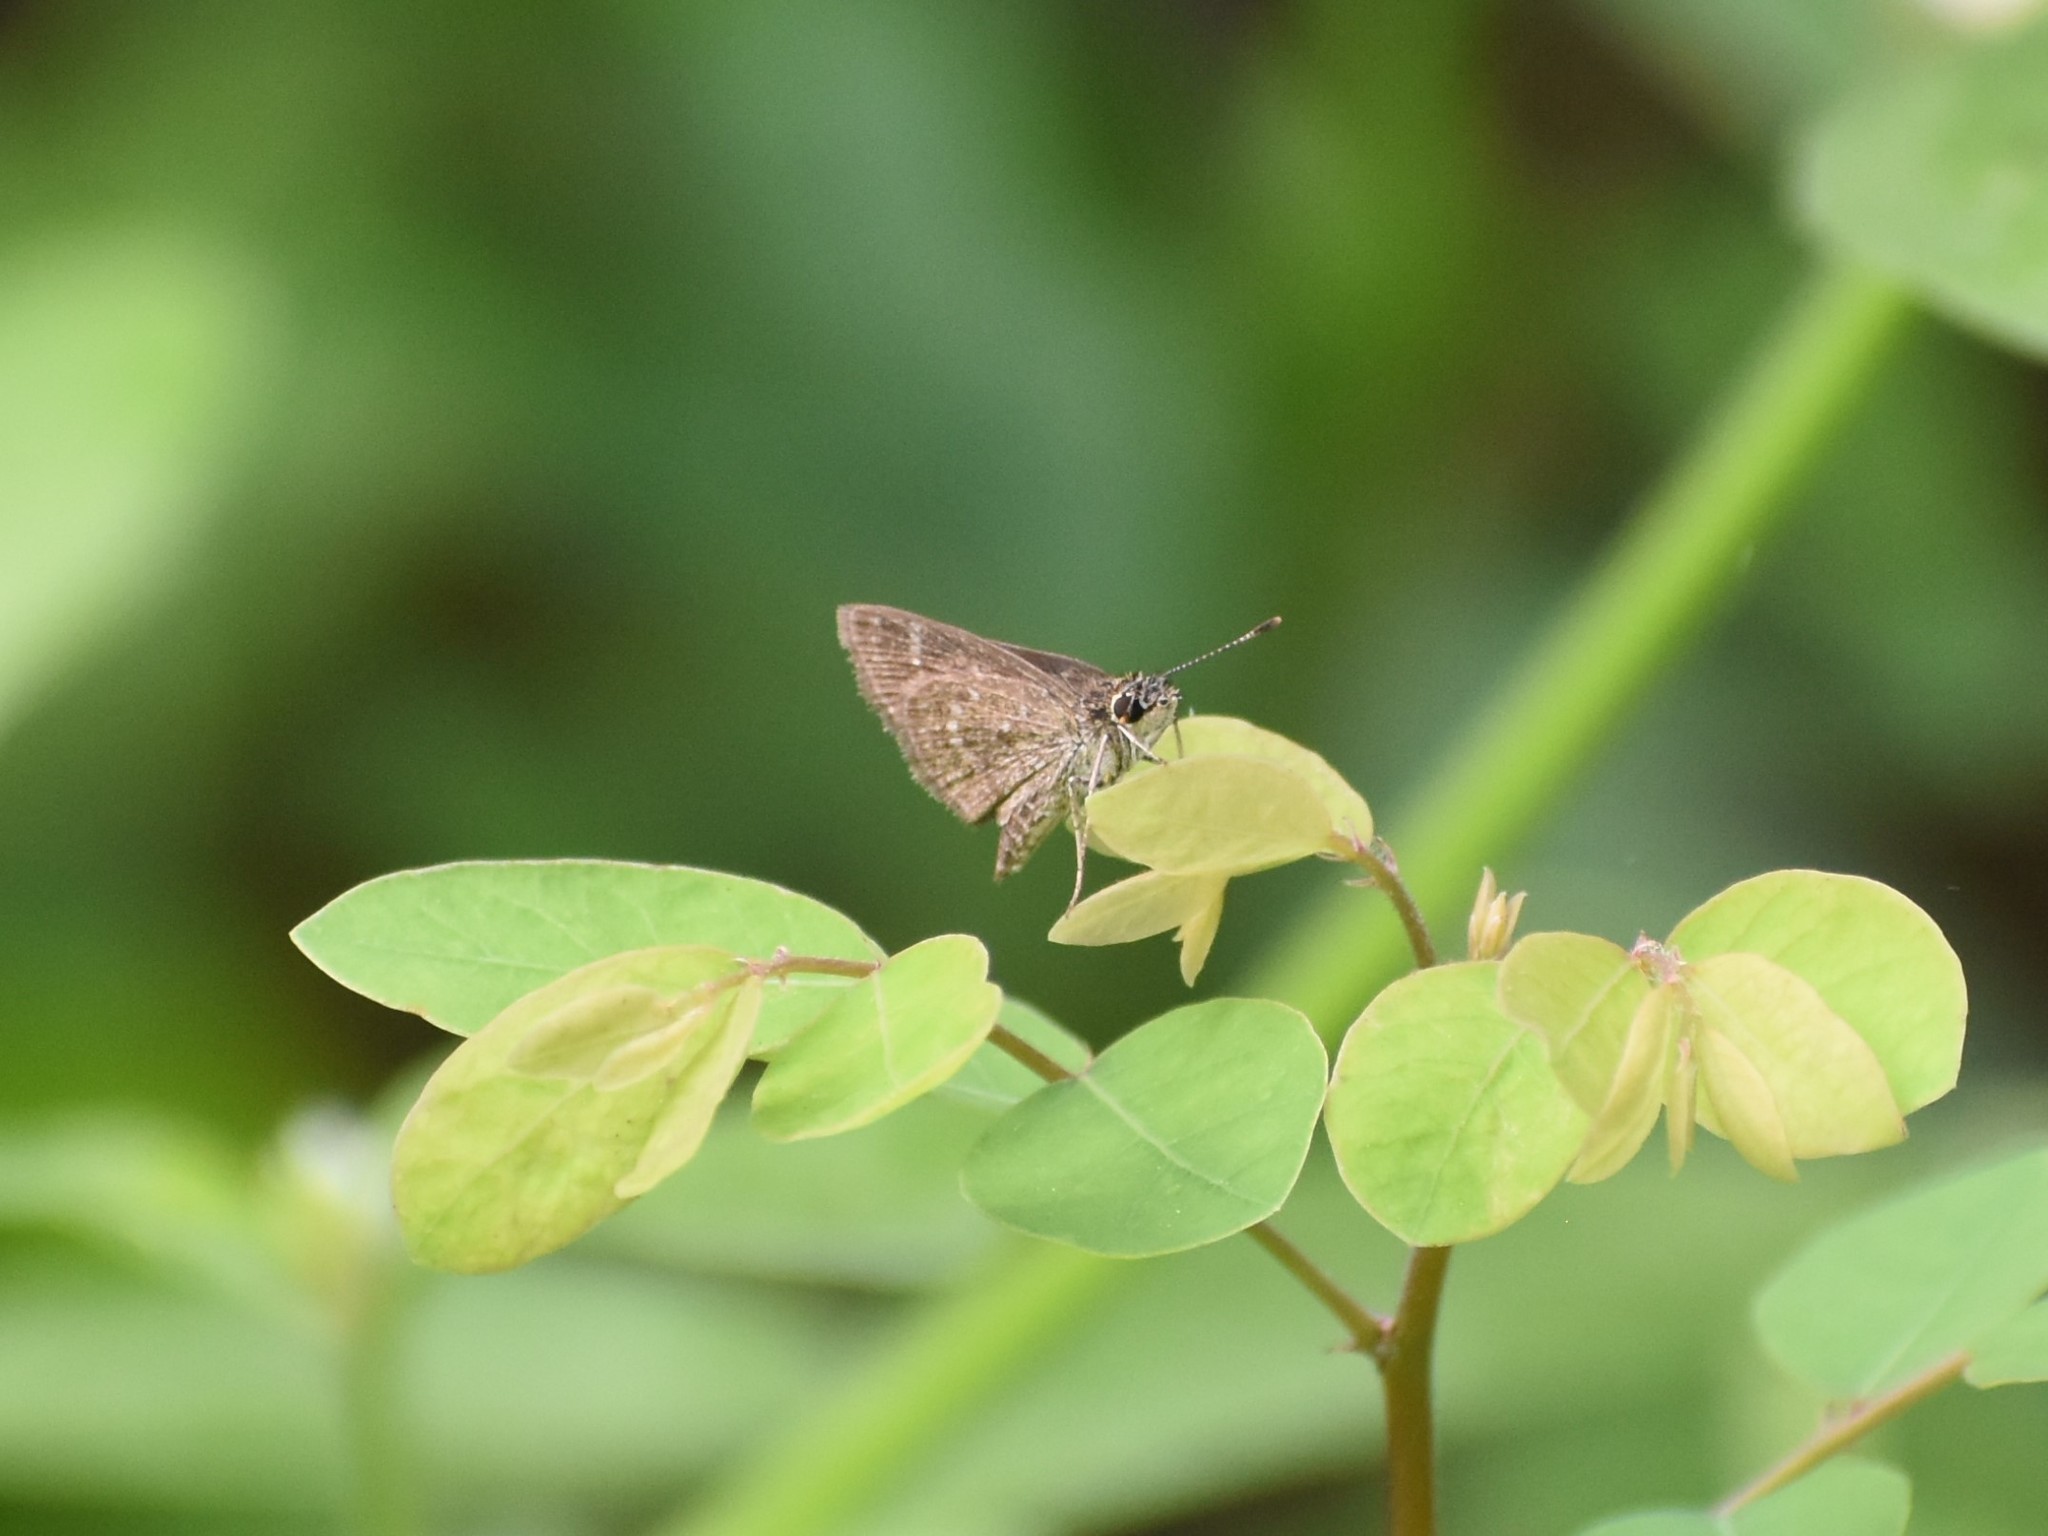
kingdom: Animalia
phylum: Arthropoda
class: Insecta
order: Lepidoptera
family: Hesperiidae
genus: Aeromachus
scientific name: Aeromachus pygmaeus
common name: Pygmy scrub hopper
